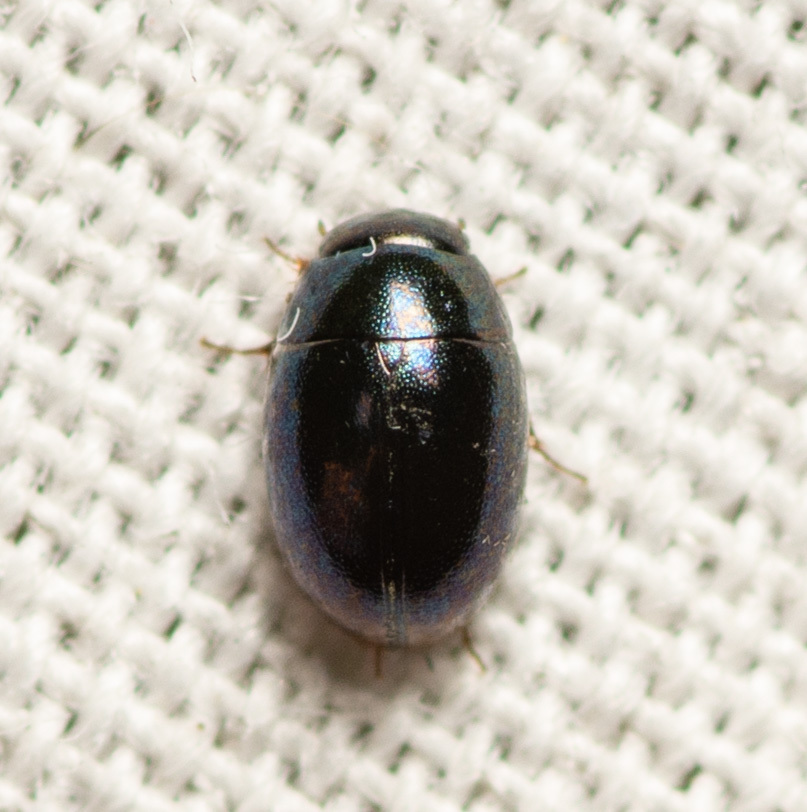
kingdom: Animalia
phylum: Arthropoda
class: Insecta
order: Coleoptera
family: Hydrophilidae
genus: Paracymus
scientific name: Paracymus
